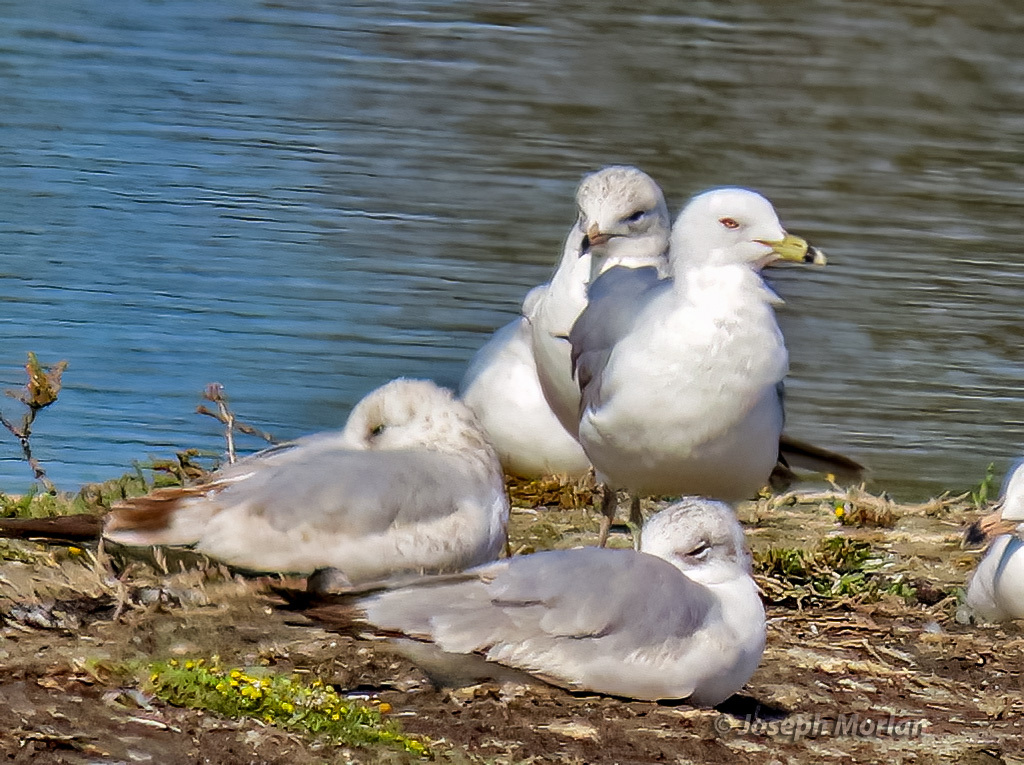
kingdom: Animalia
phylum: Chordata
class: Aves
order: Charadriiformes
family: Laridae
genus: Larus
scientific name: Larus delawarensis
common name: Ring-billed gull
